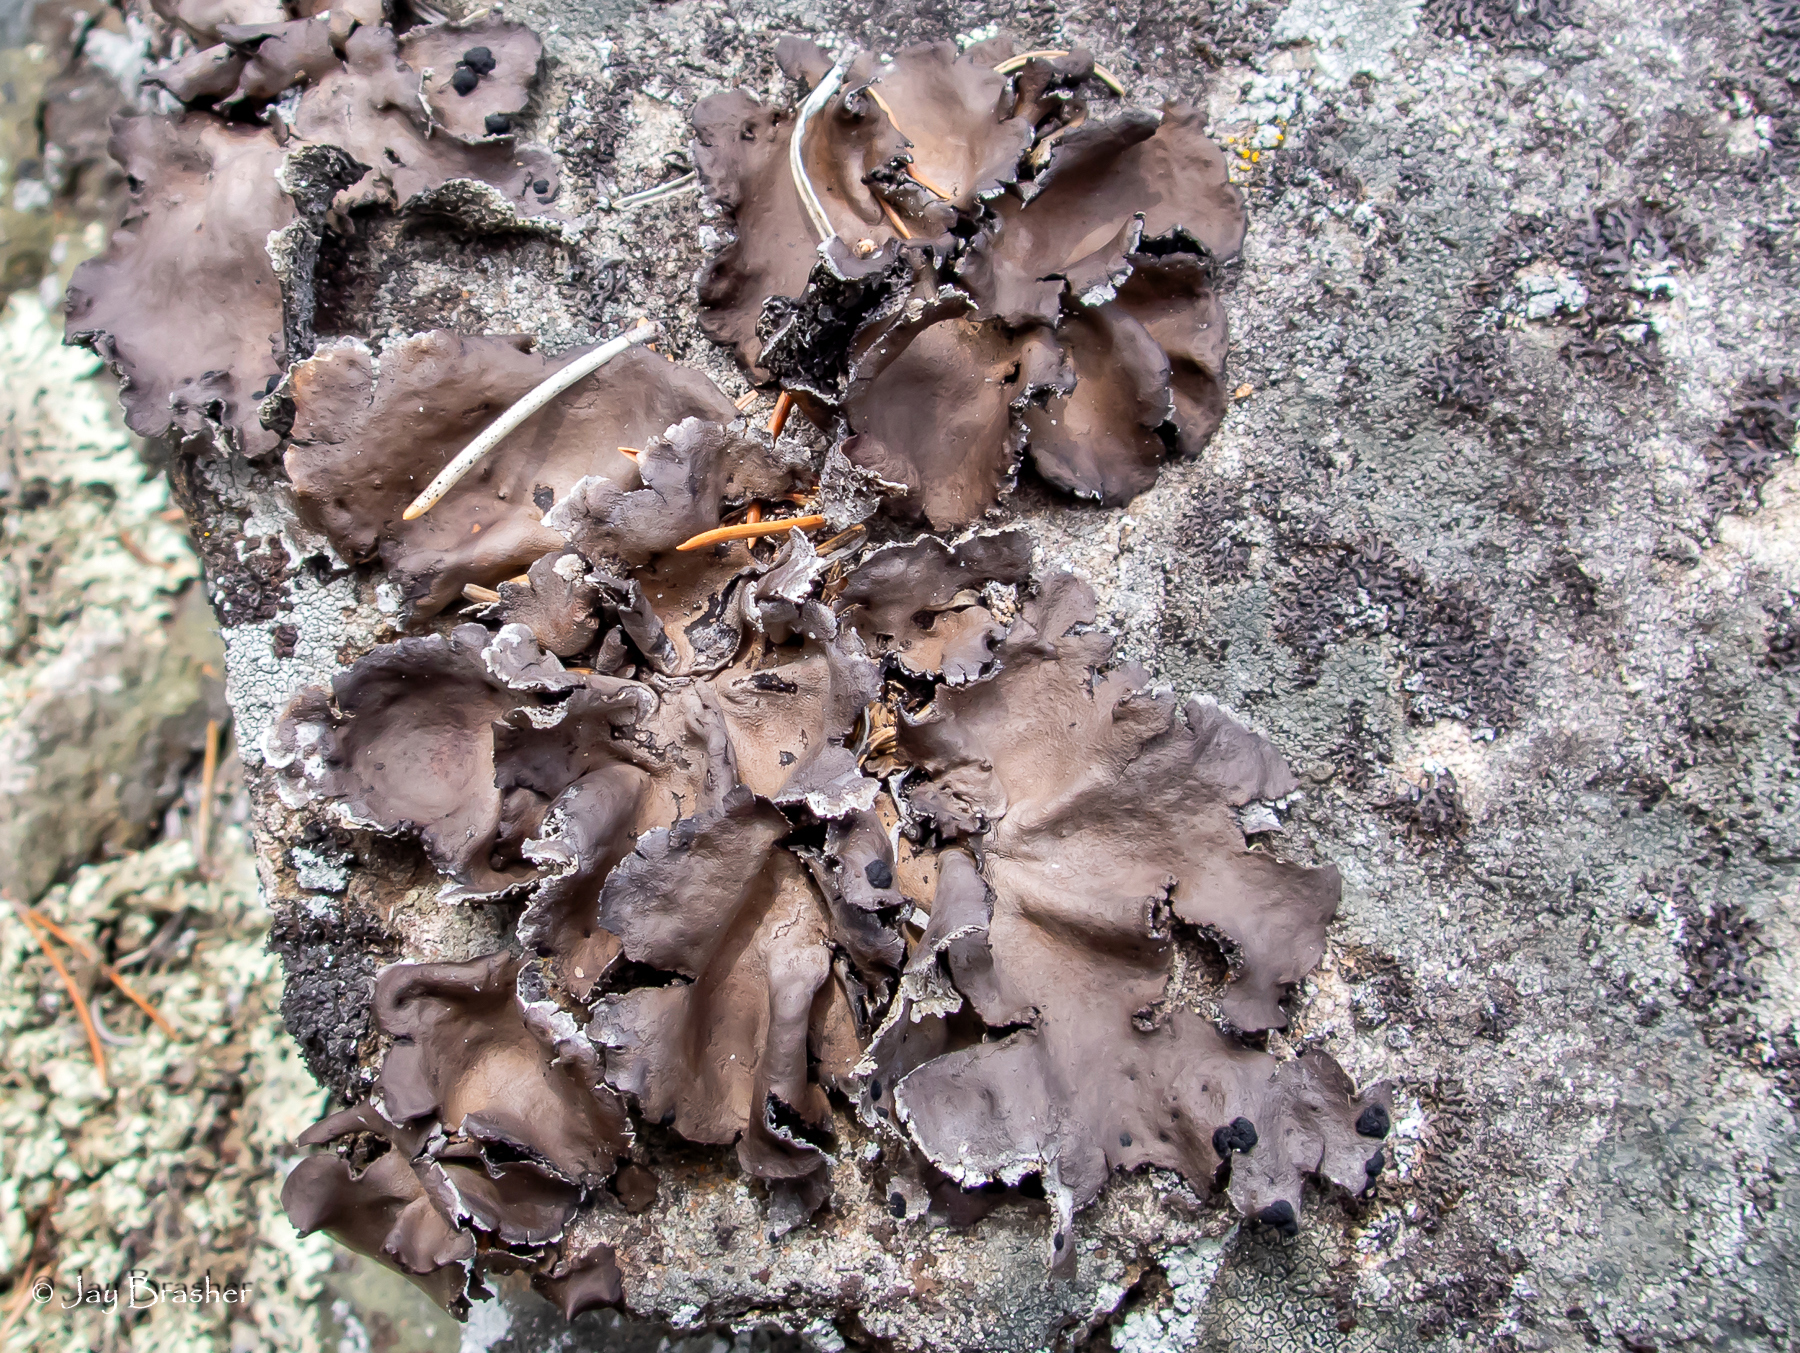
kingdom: Fungi
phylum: Ascomycota
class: Lecanoromycetes
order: Umbilicariales
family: Umbilicariaceae
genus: Umbilicaria
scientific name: Umbilicaria muhlenbergii
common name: Lesser rocktripe
